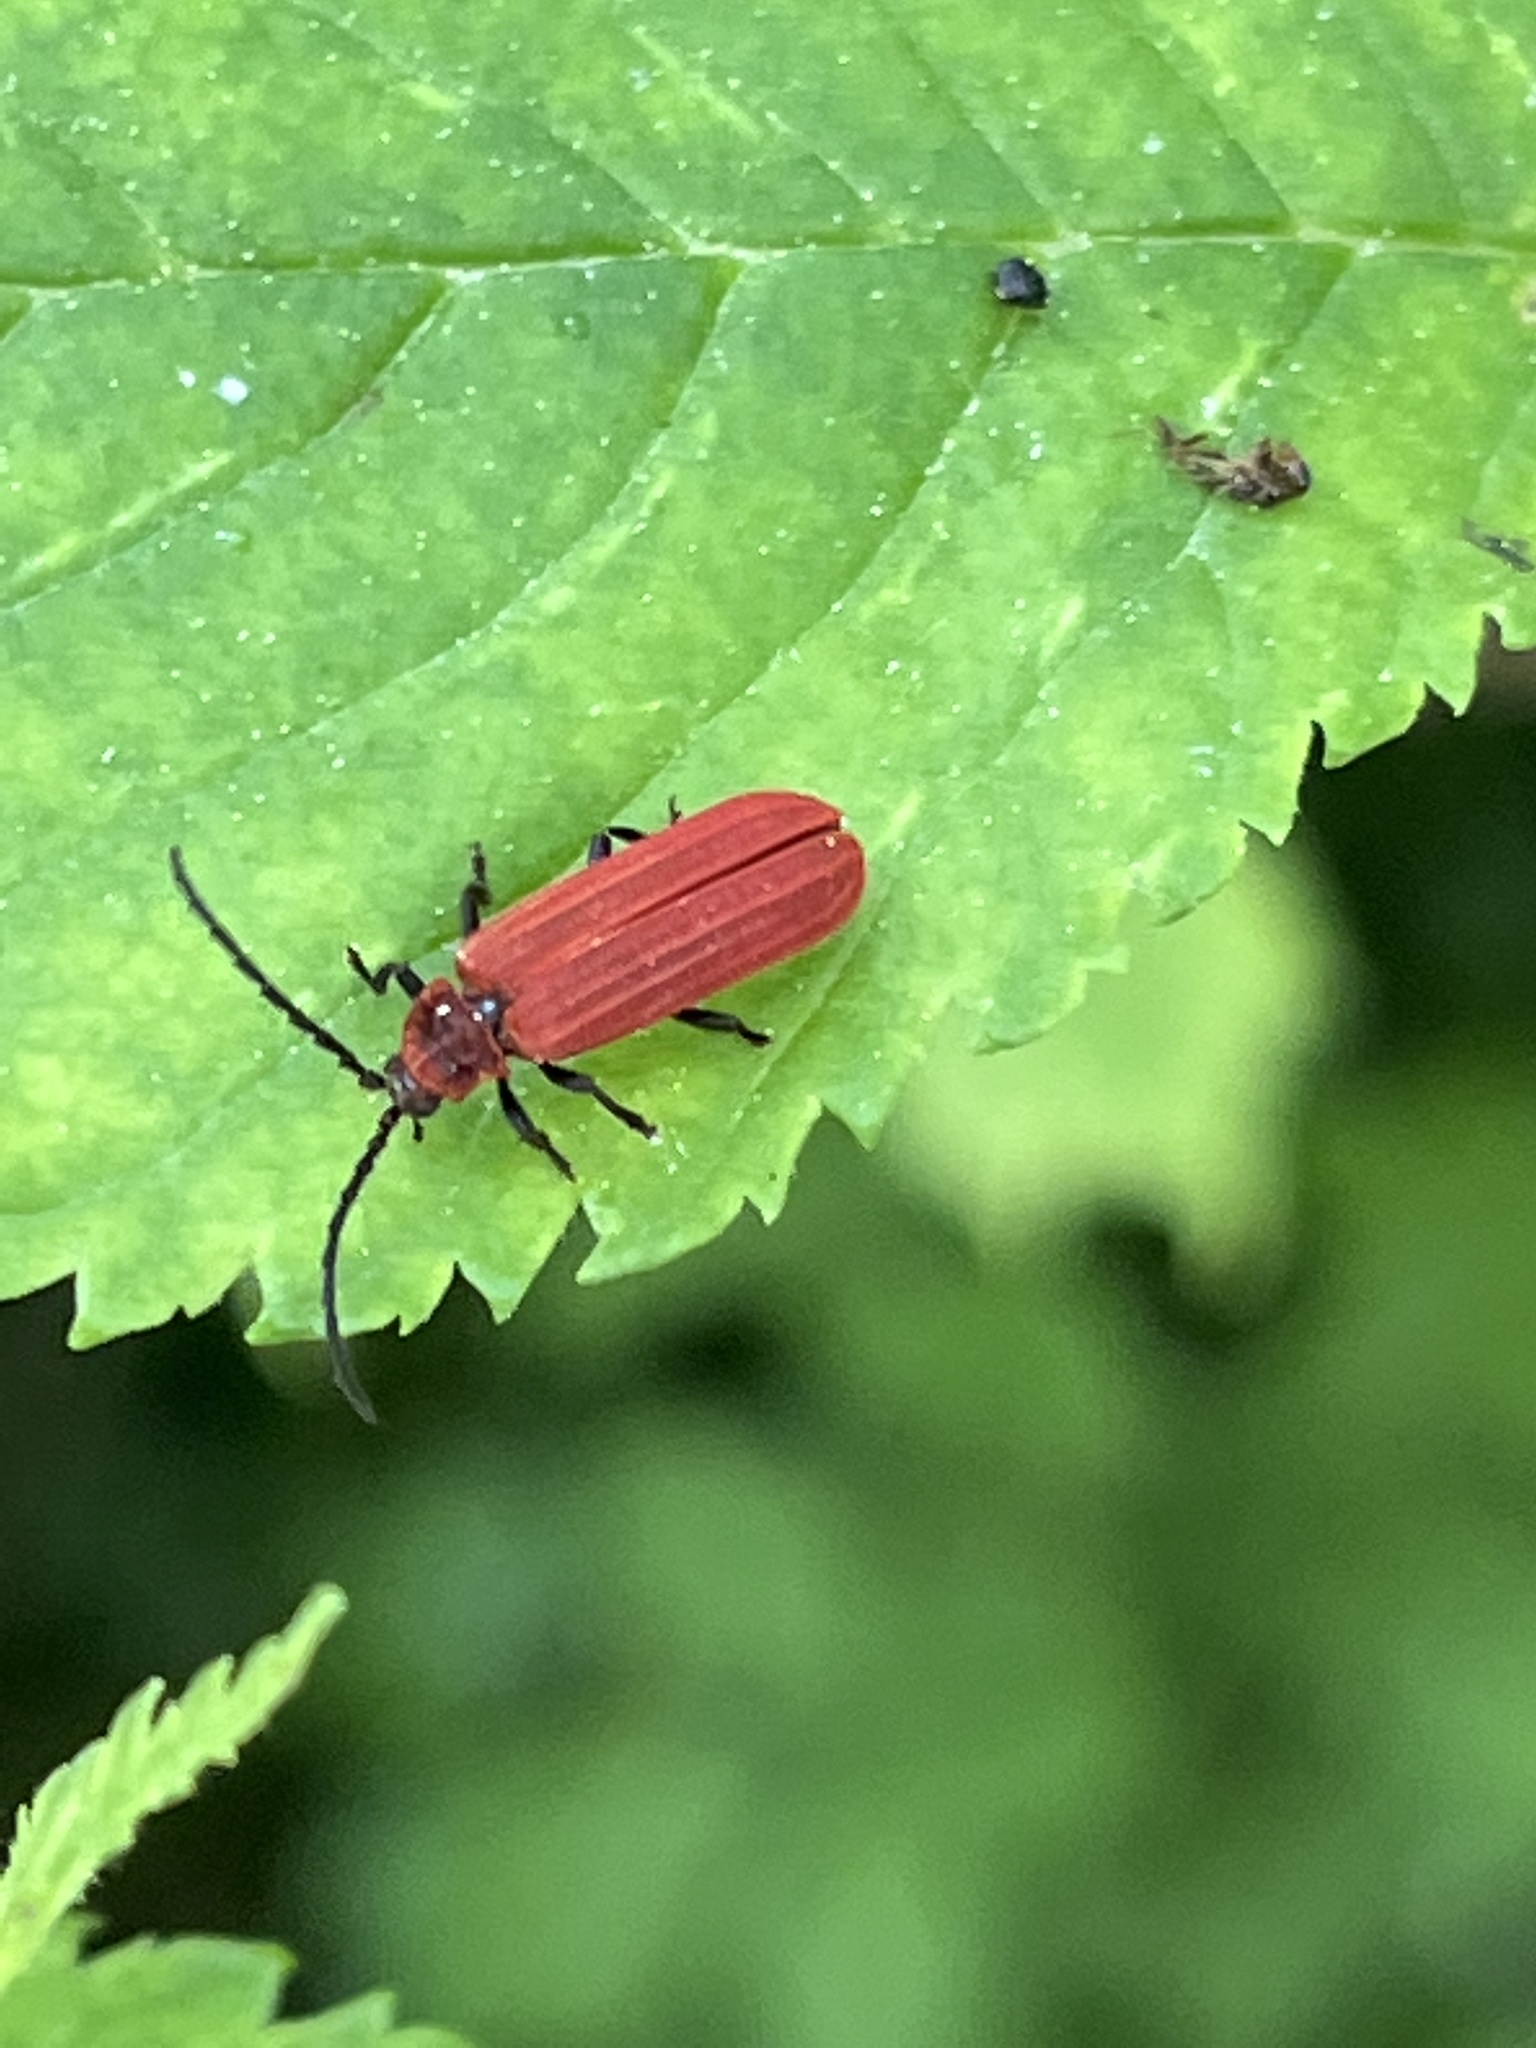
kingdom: Animalia
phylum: Arthropoda
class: Insecta
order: Coleoptera
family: Lycidae
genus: Lopheros
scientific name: Lopheros rubens
